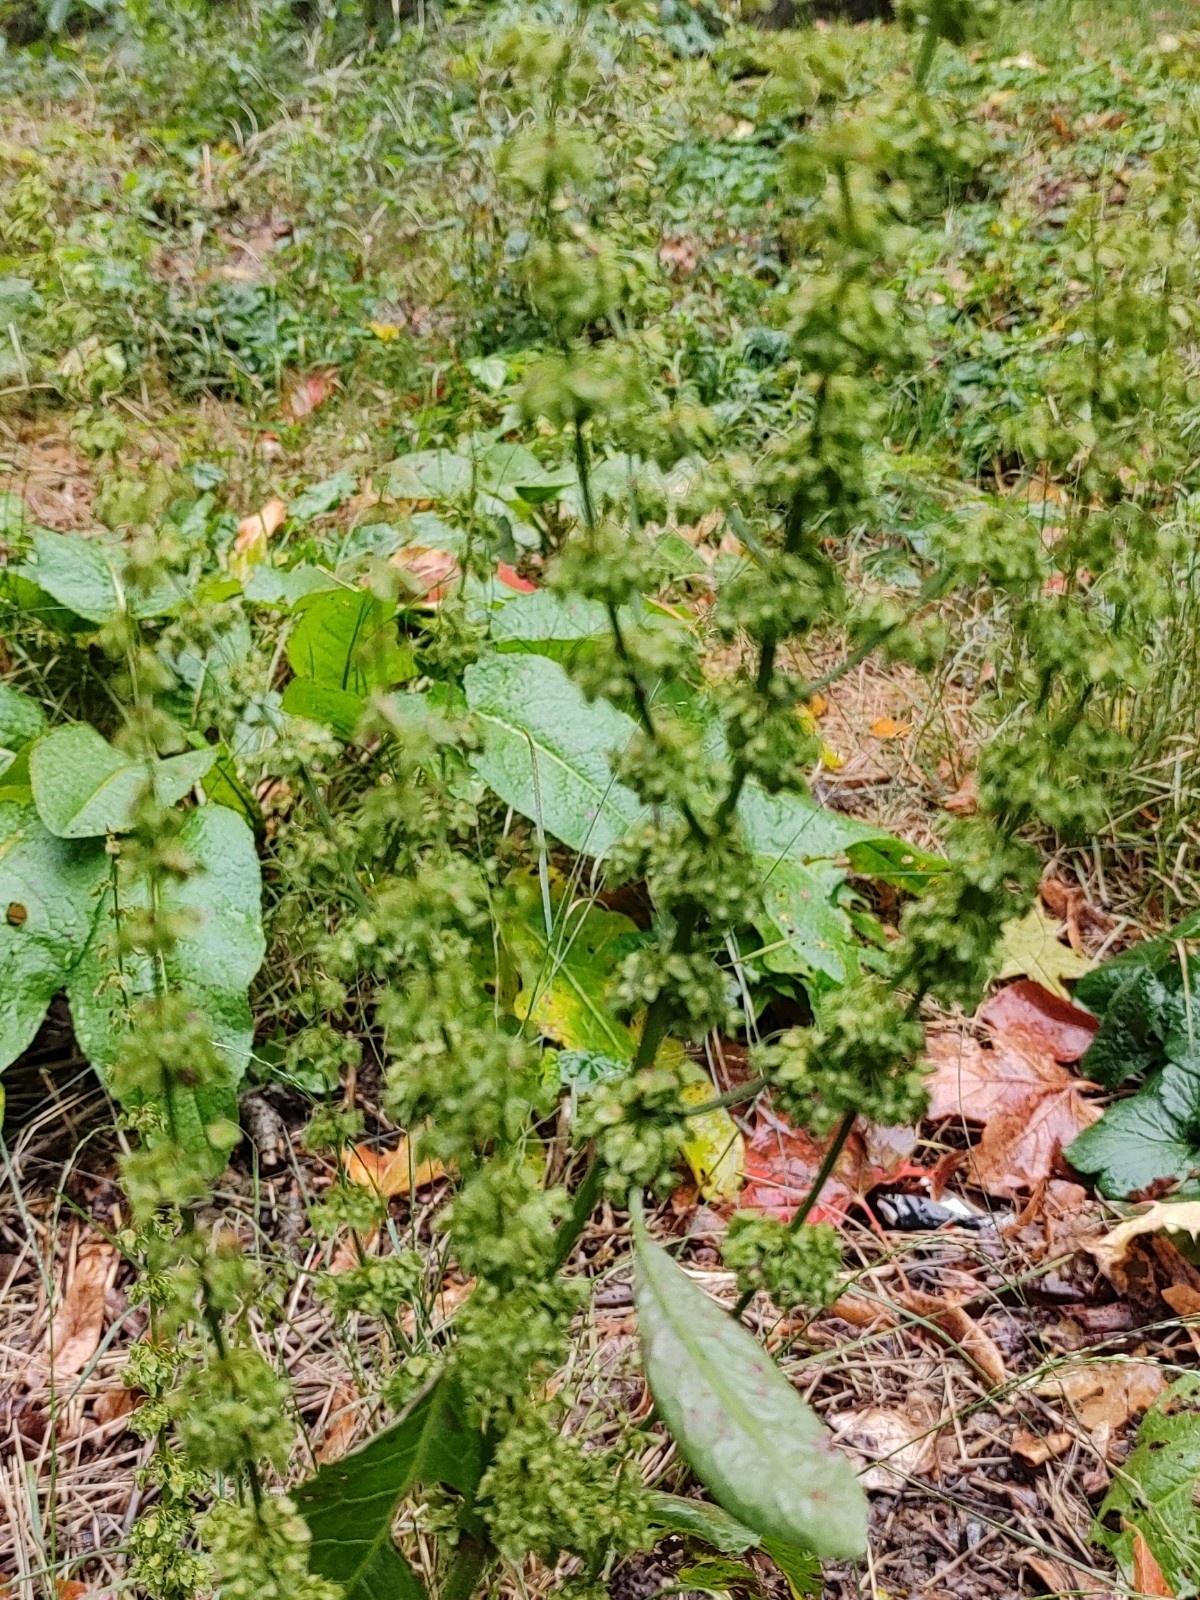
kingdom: Plantae
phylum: Tracheophyta
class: Magnoliopsida
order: Caryophyllales
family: Polygonaceae
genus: Rumex
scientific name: Rumex obtusifolius
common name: Bitter dock
